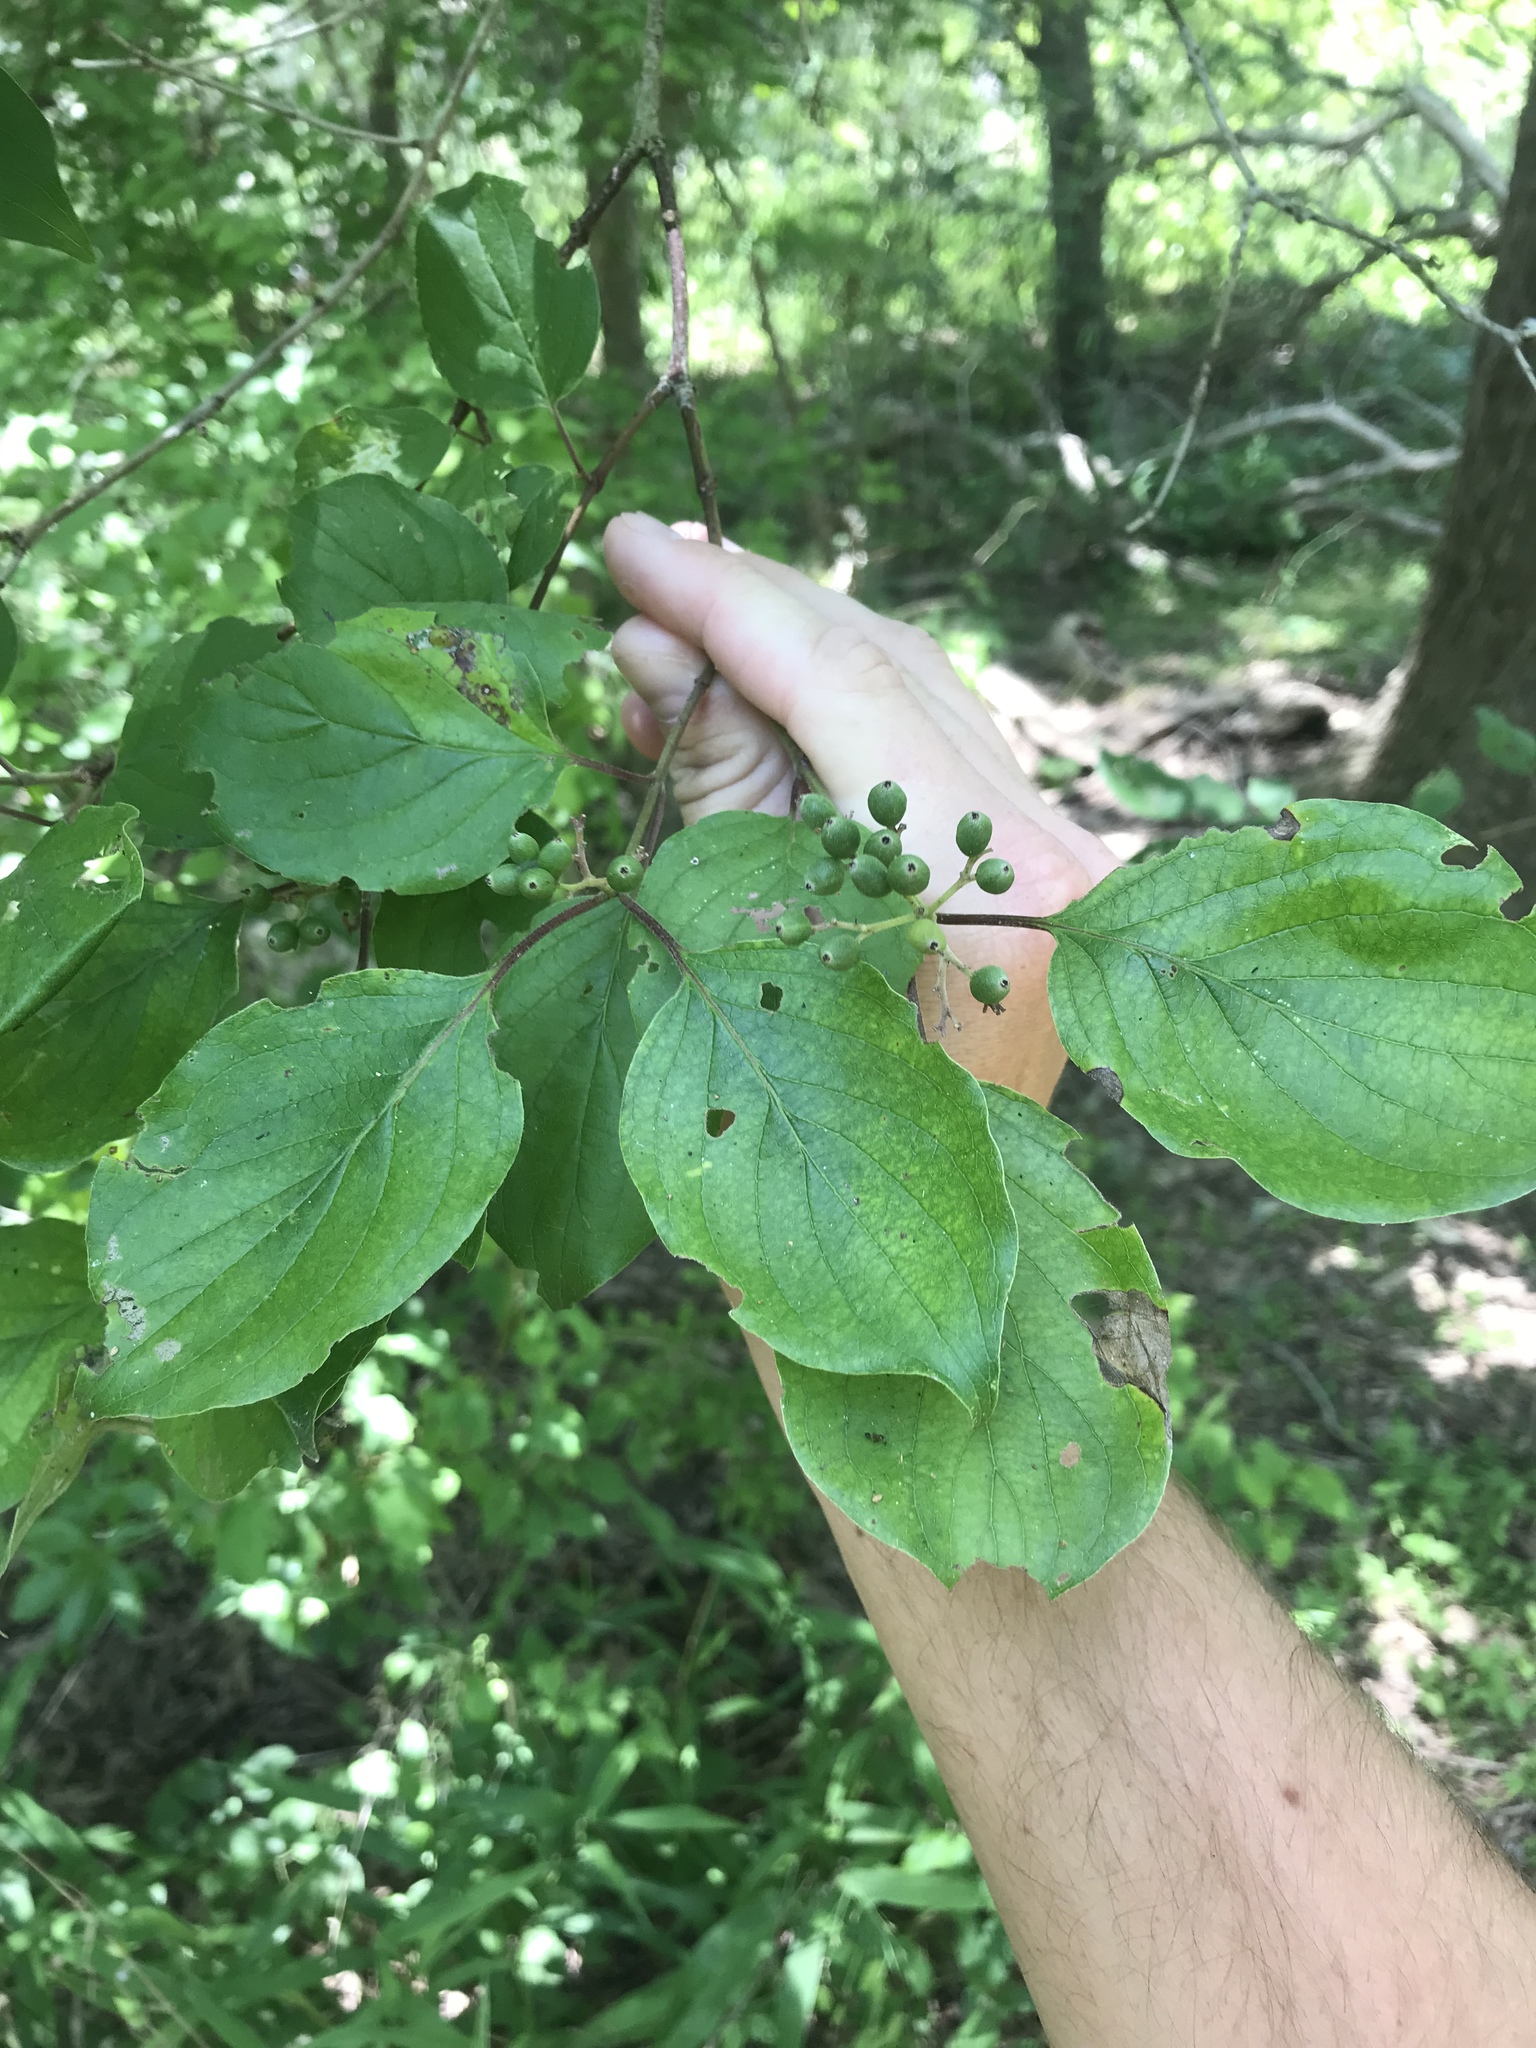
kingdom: Plantae
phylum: Tracheophyta
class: Magnoliopsida
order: Cornales
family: Cornaceae
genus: Cornus
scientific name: Cornus drummondii
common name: Rough-leaf dogwood
